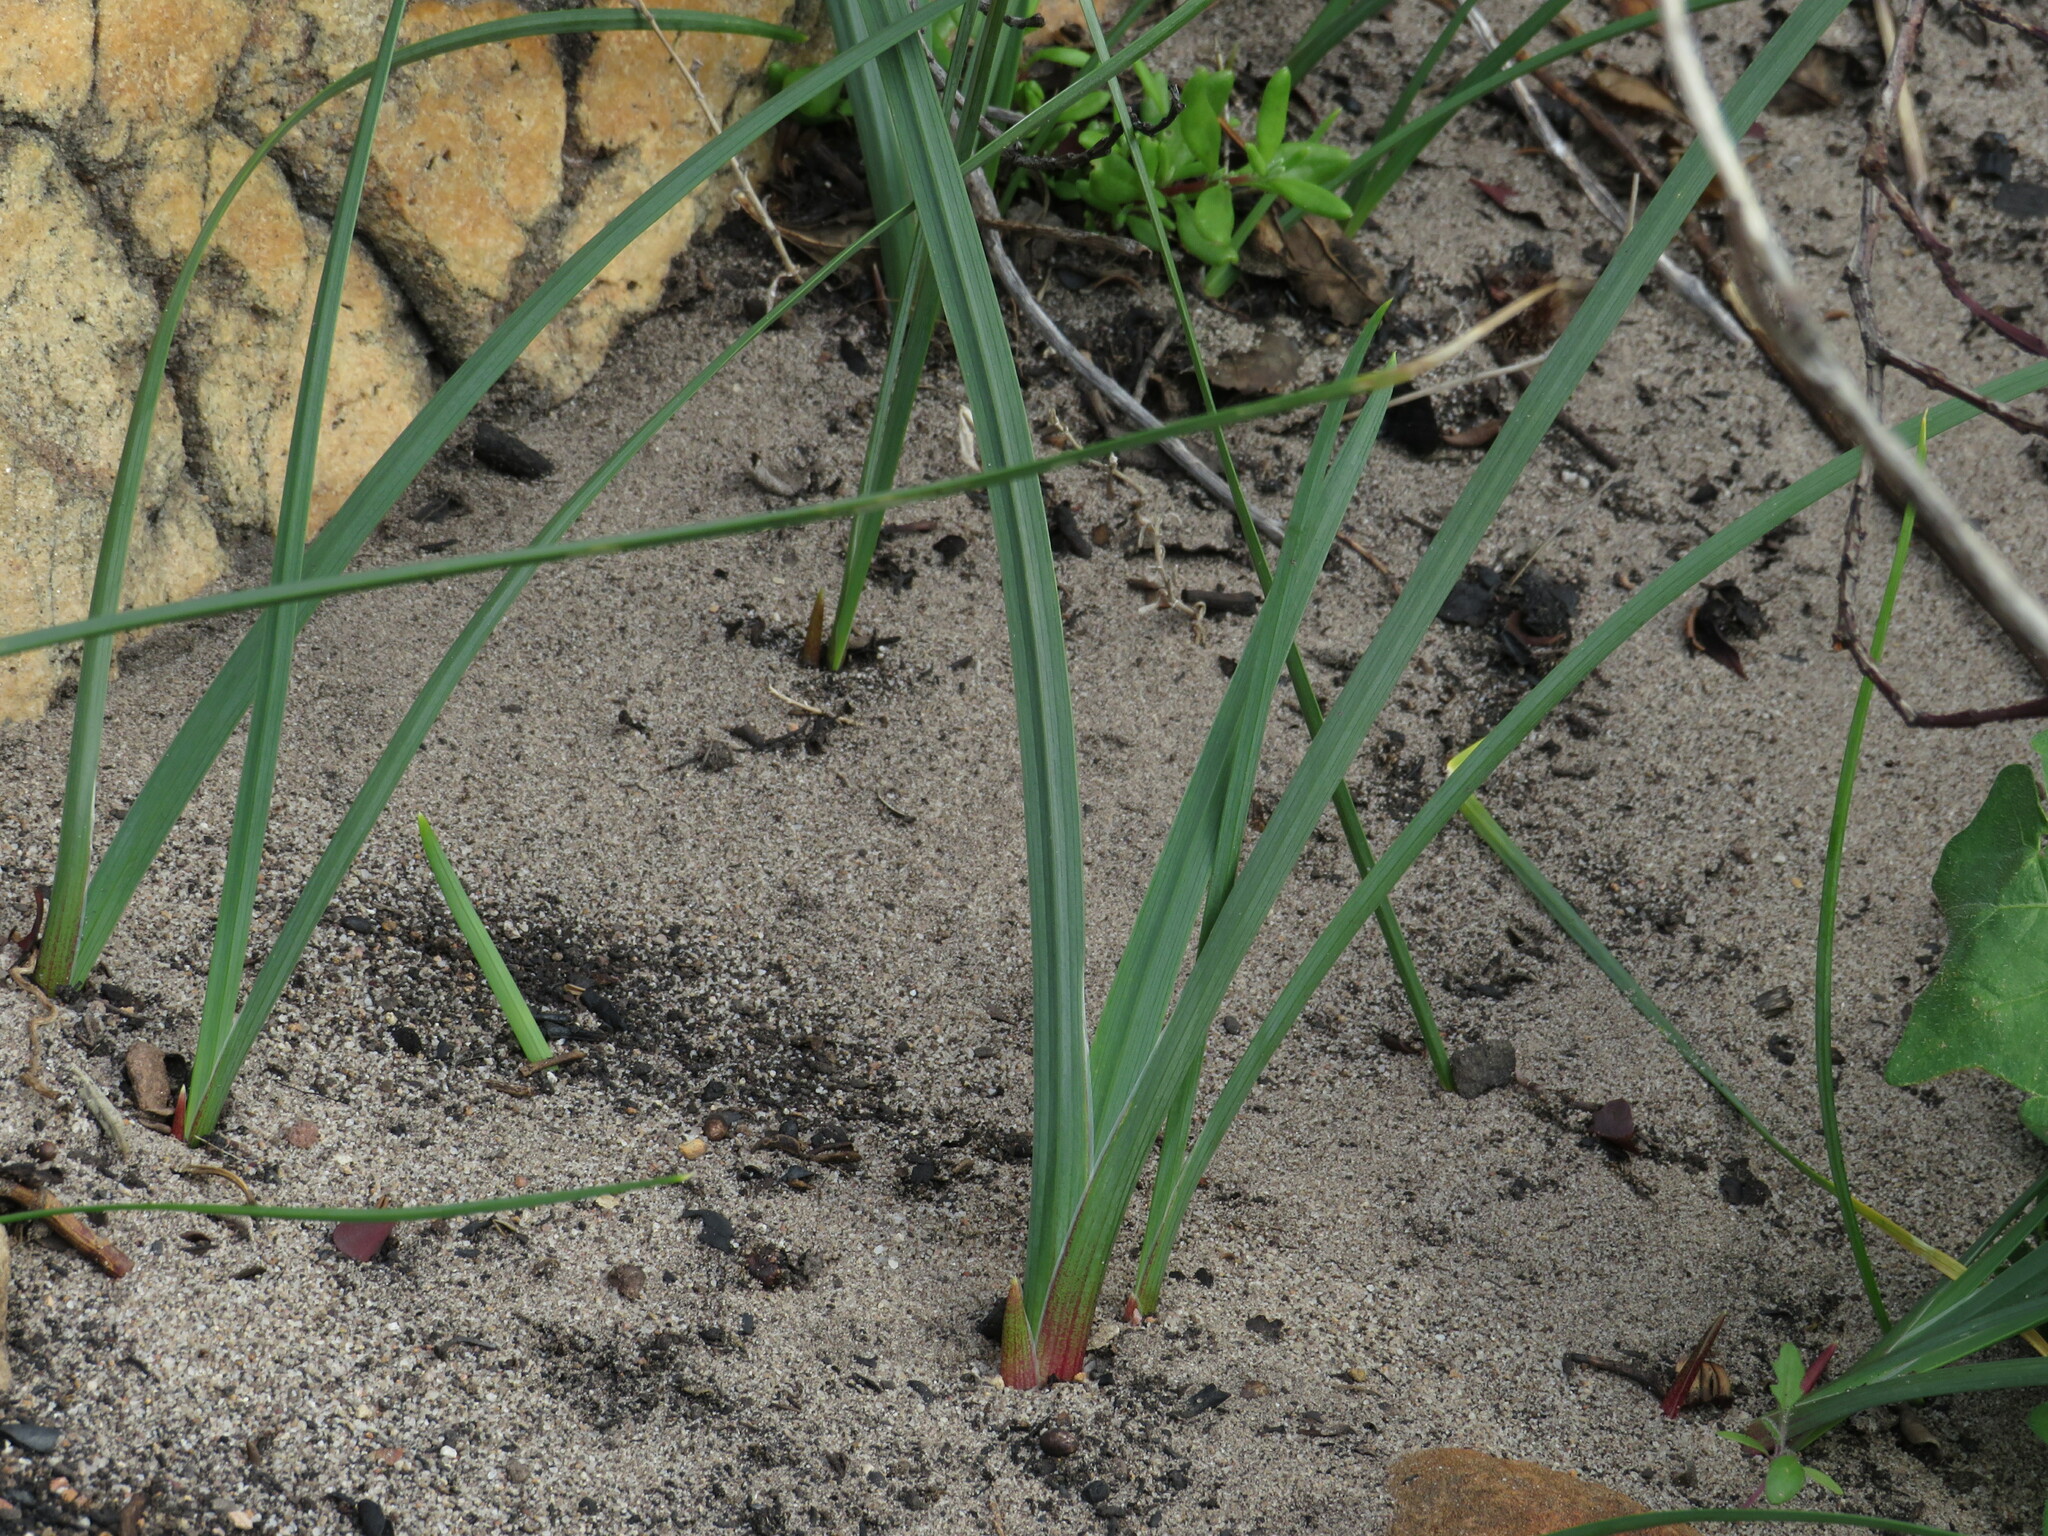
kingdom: Plantae
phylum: Tracheophyta
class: Liliopsida
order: Asparagales
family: Iridaceae
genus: Ferraria
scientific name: Ferraria crispa
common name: Black-flag
